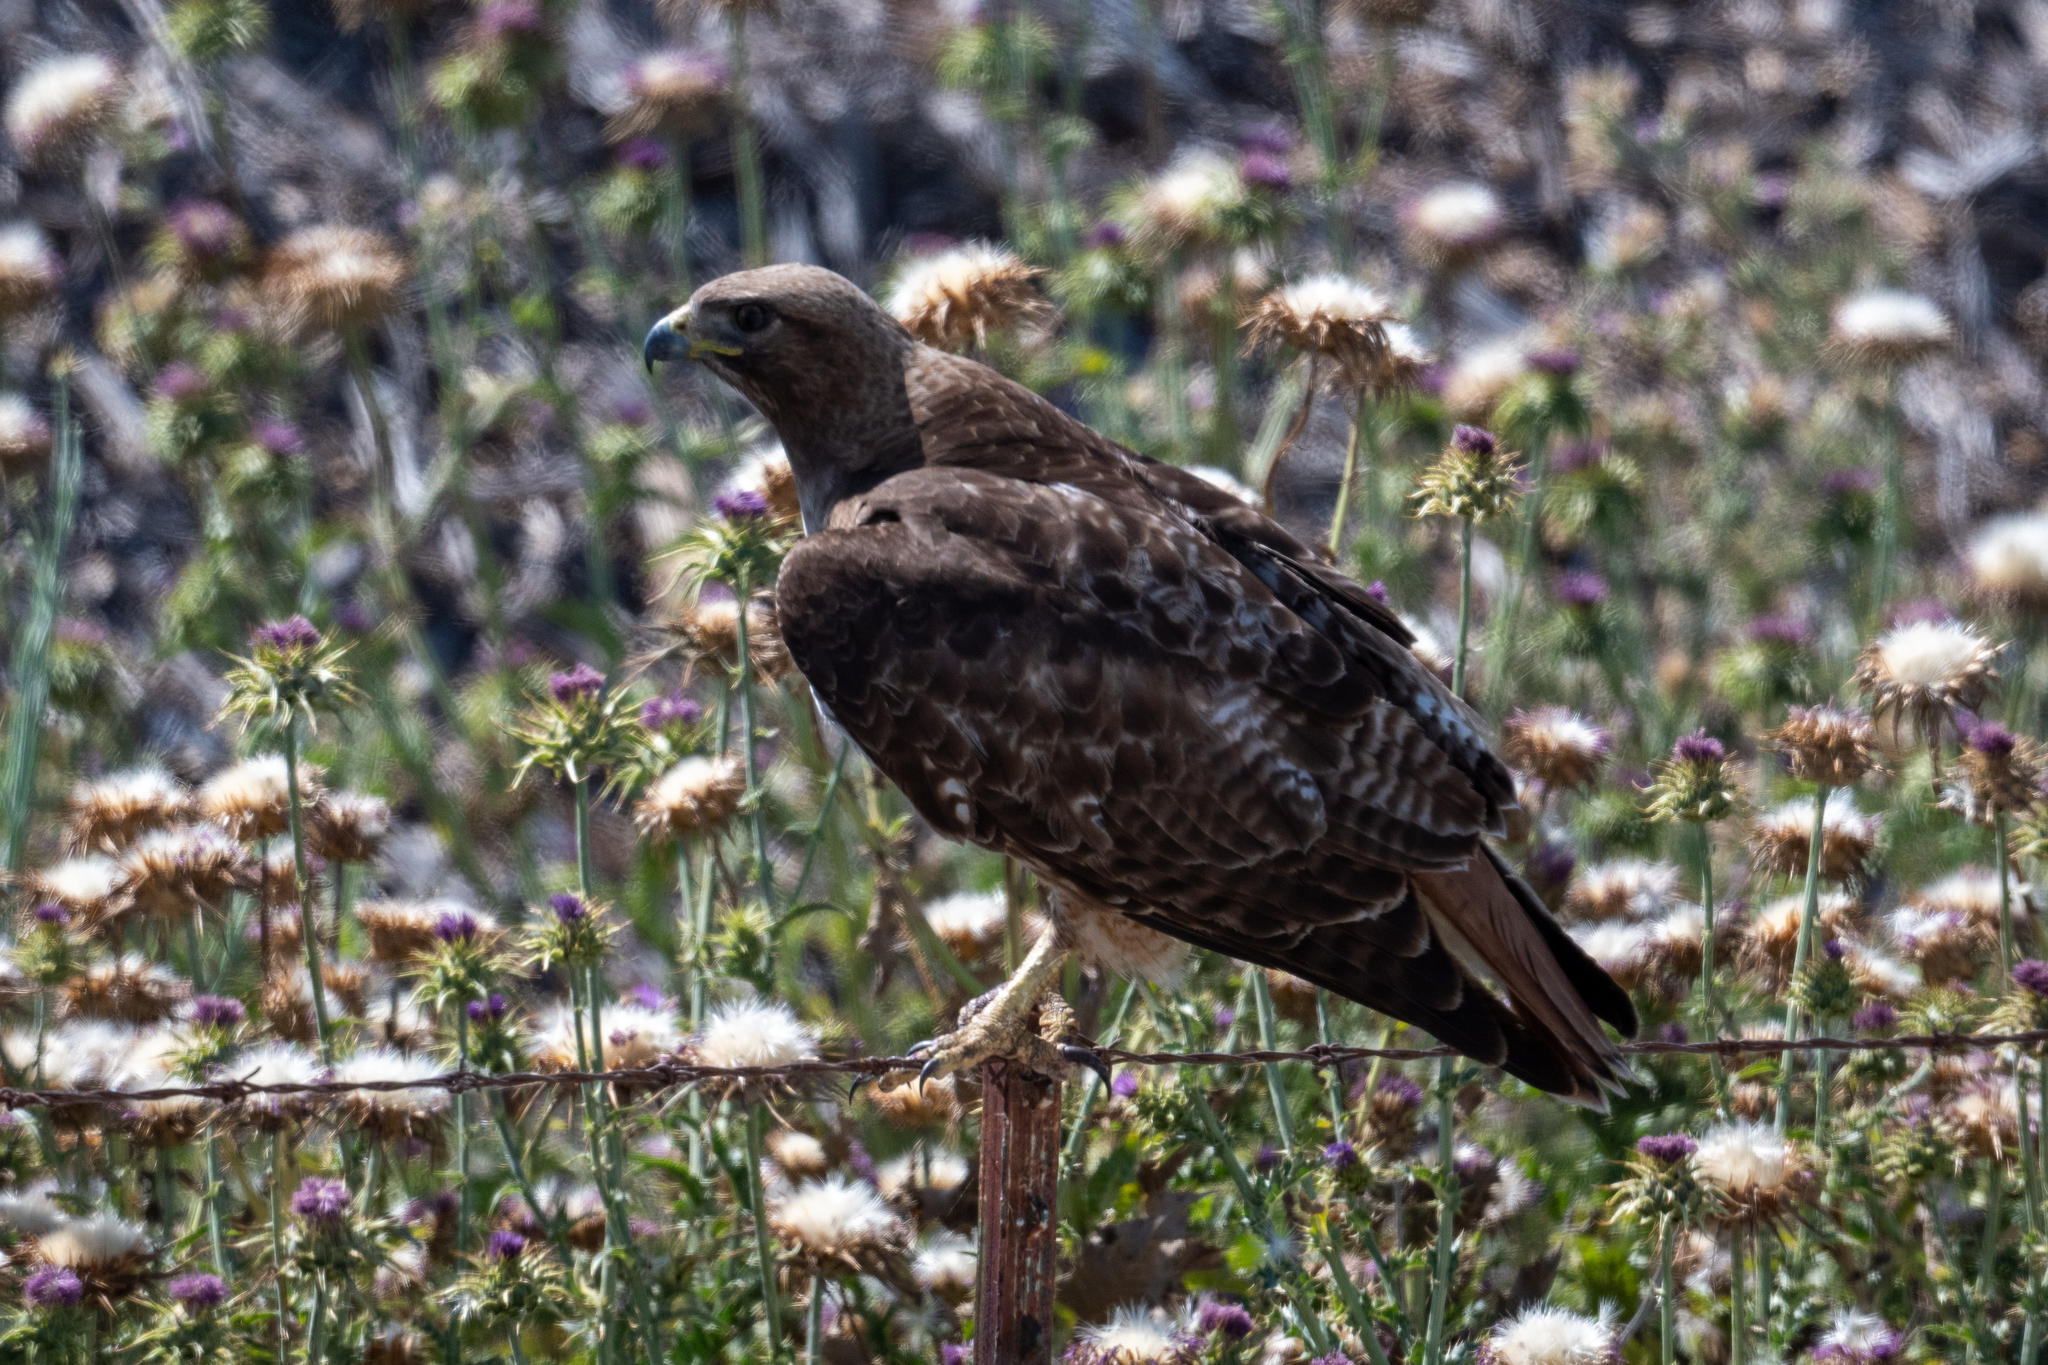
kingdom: Animalia
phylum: Chordata
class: Aves
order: Accipitriformes
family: Accipitridae
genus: Buteo
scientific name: Buteo jamaicensis
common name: Red-tailed hawk
